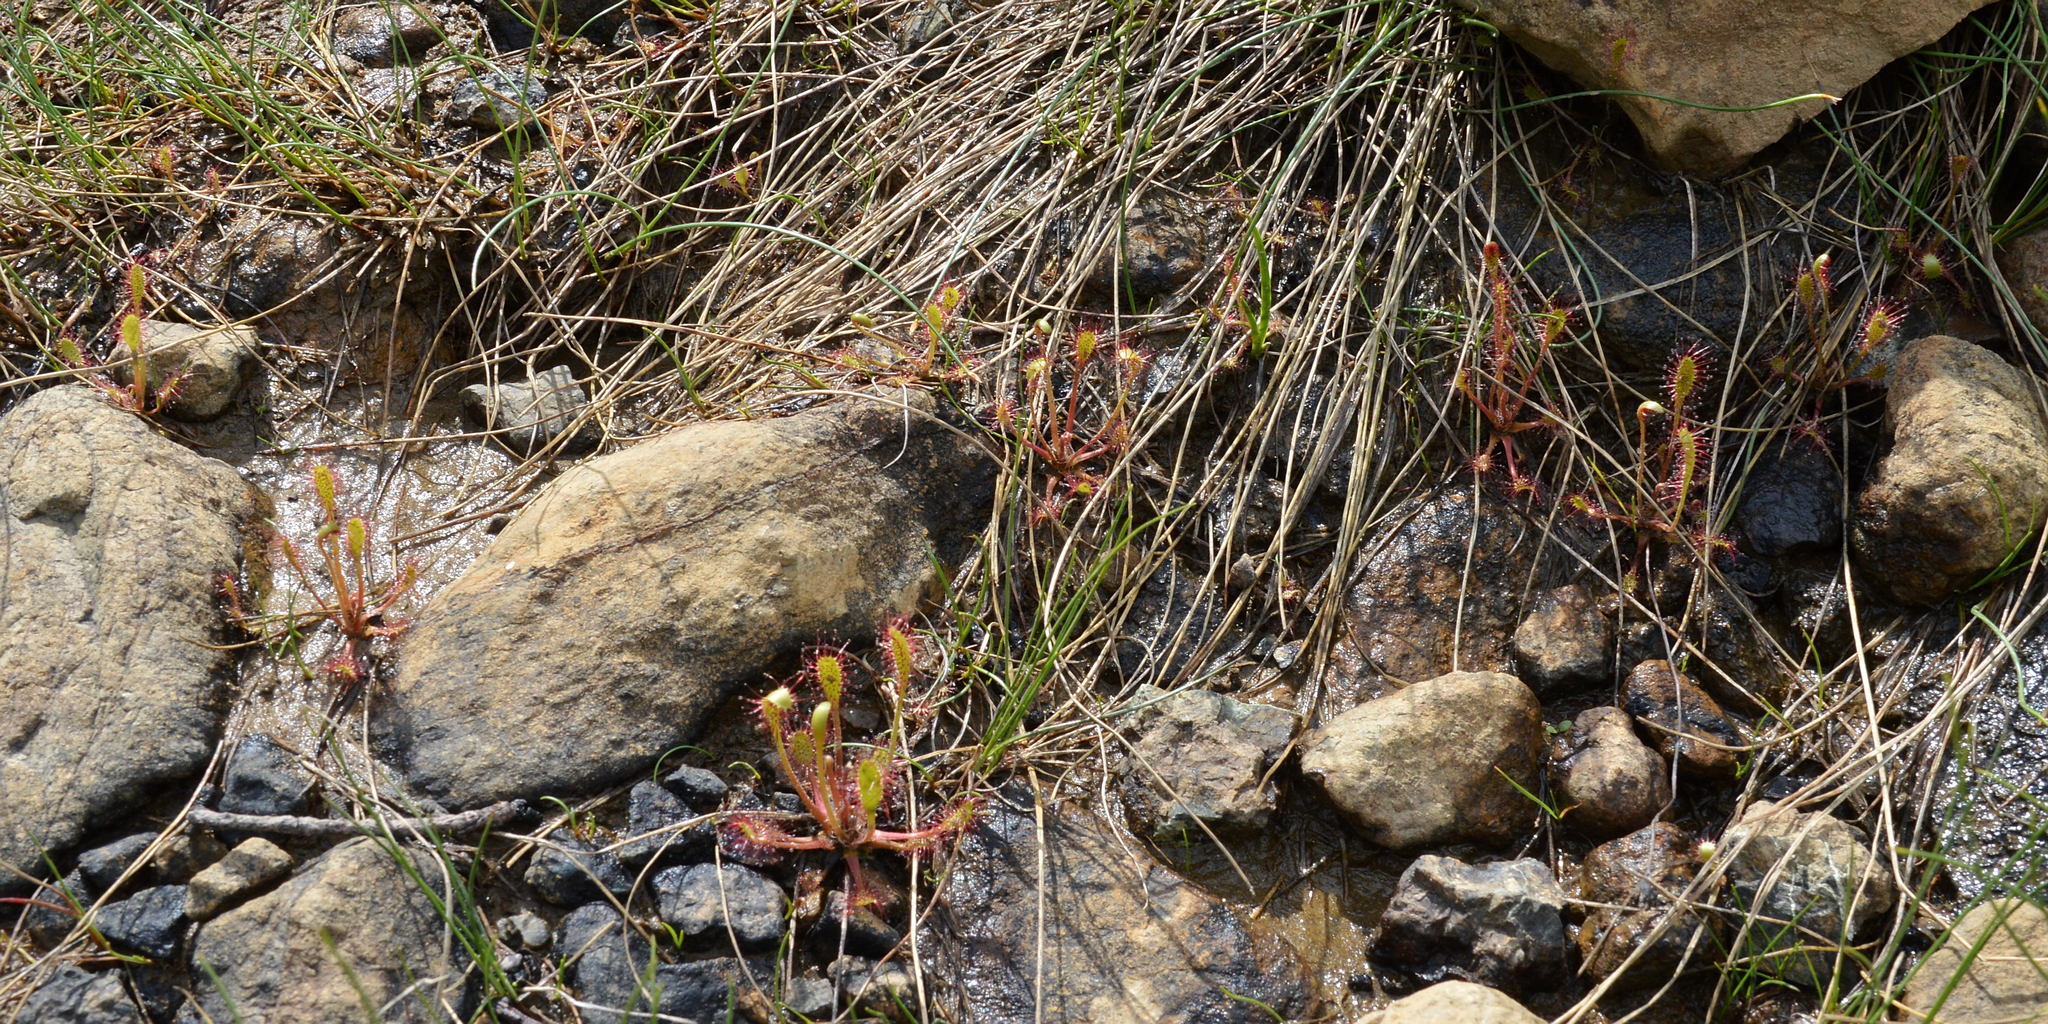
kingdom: Plantae
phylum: Tracheophyta
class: Magnoliopsida
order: Caryophyllales
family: Droseraceae
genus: Drosera
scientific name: Drosera anglica
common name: Great sundew
